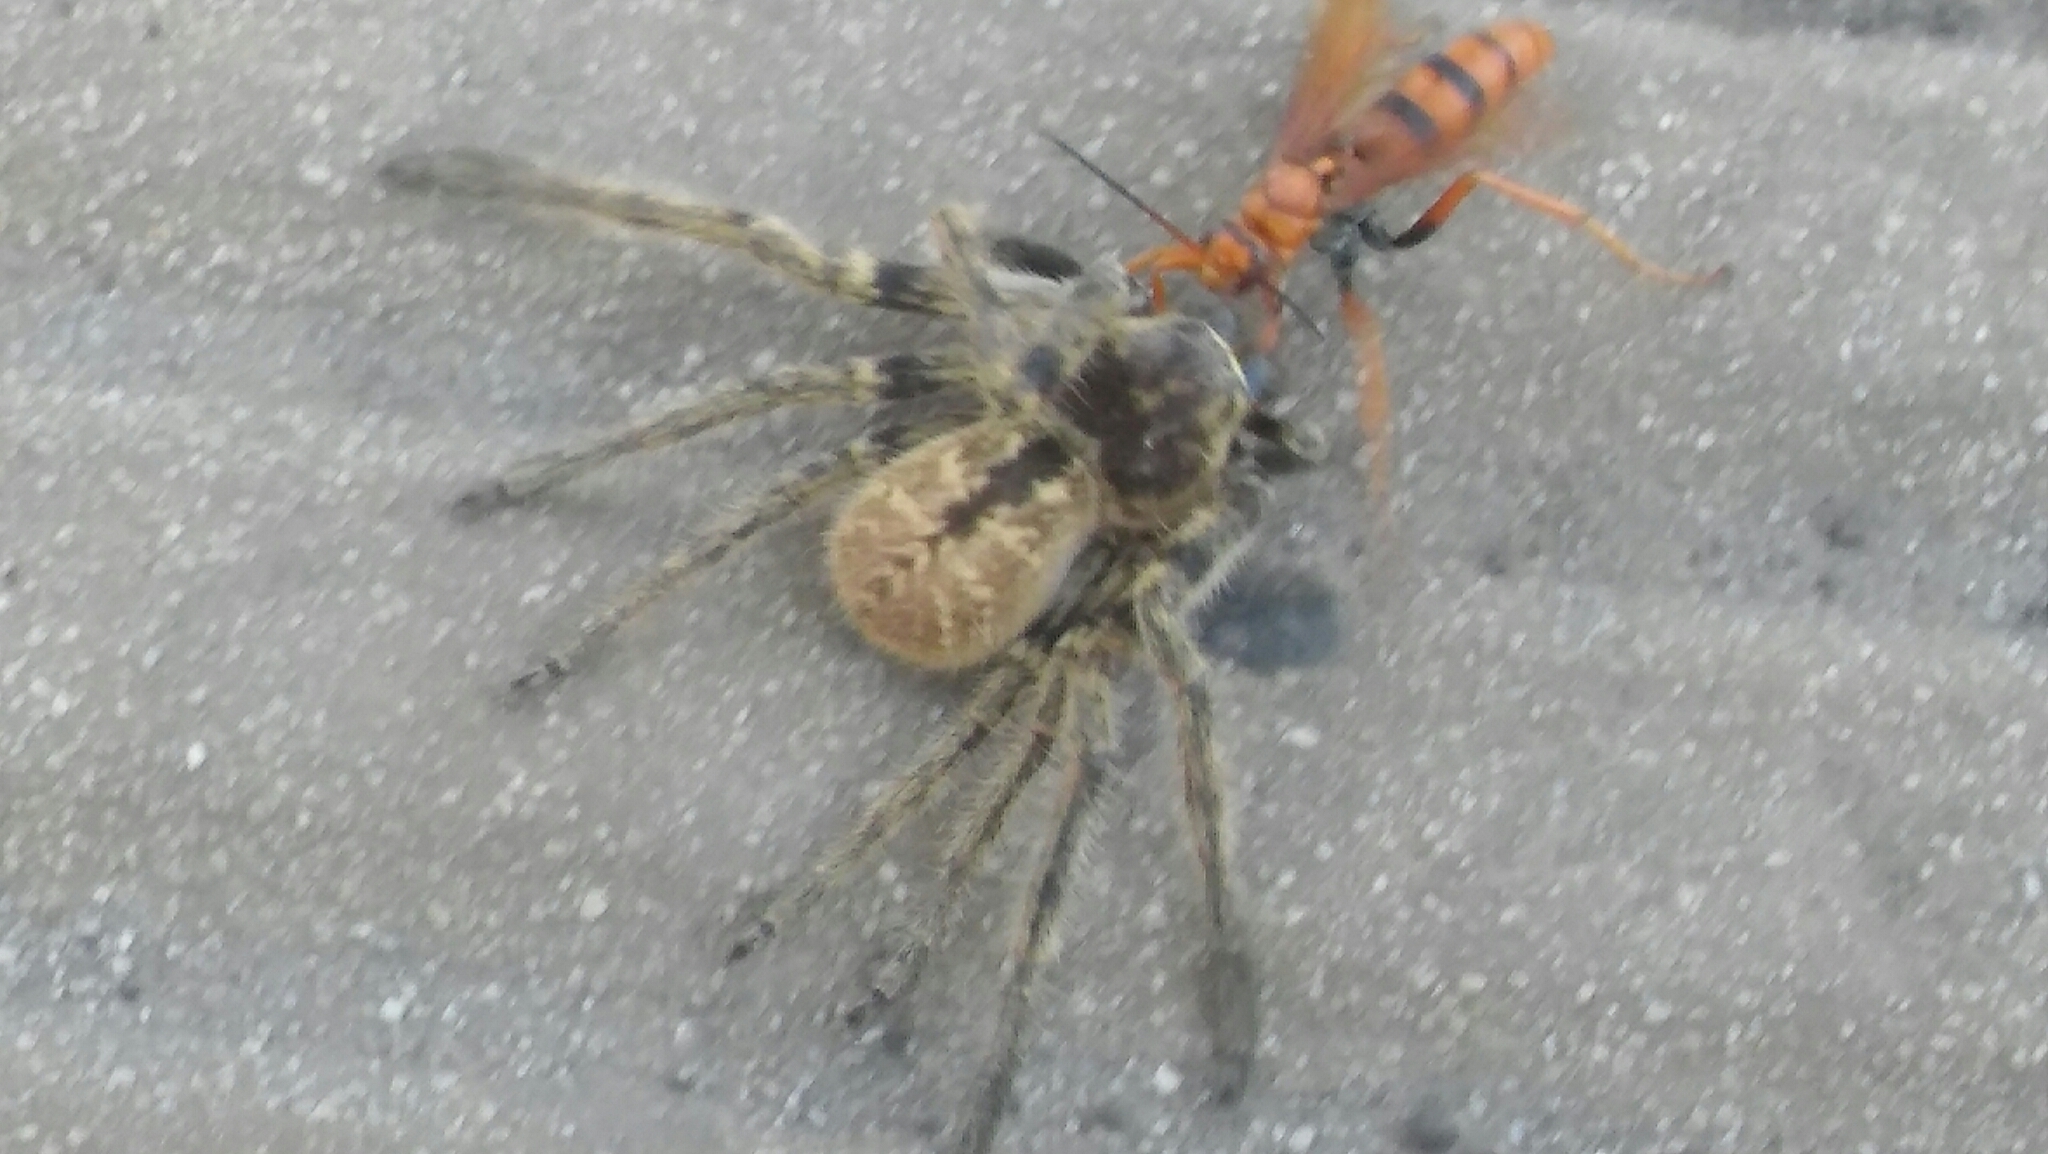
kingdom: Animalia
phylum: Arthropoda
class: Arachnida
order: Araneae
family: Sparassidae
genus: Polybetes
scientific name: Polybetes pythagoricus
